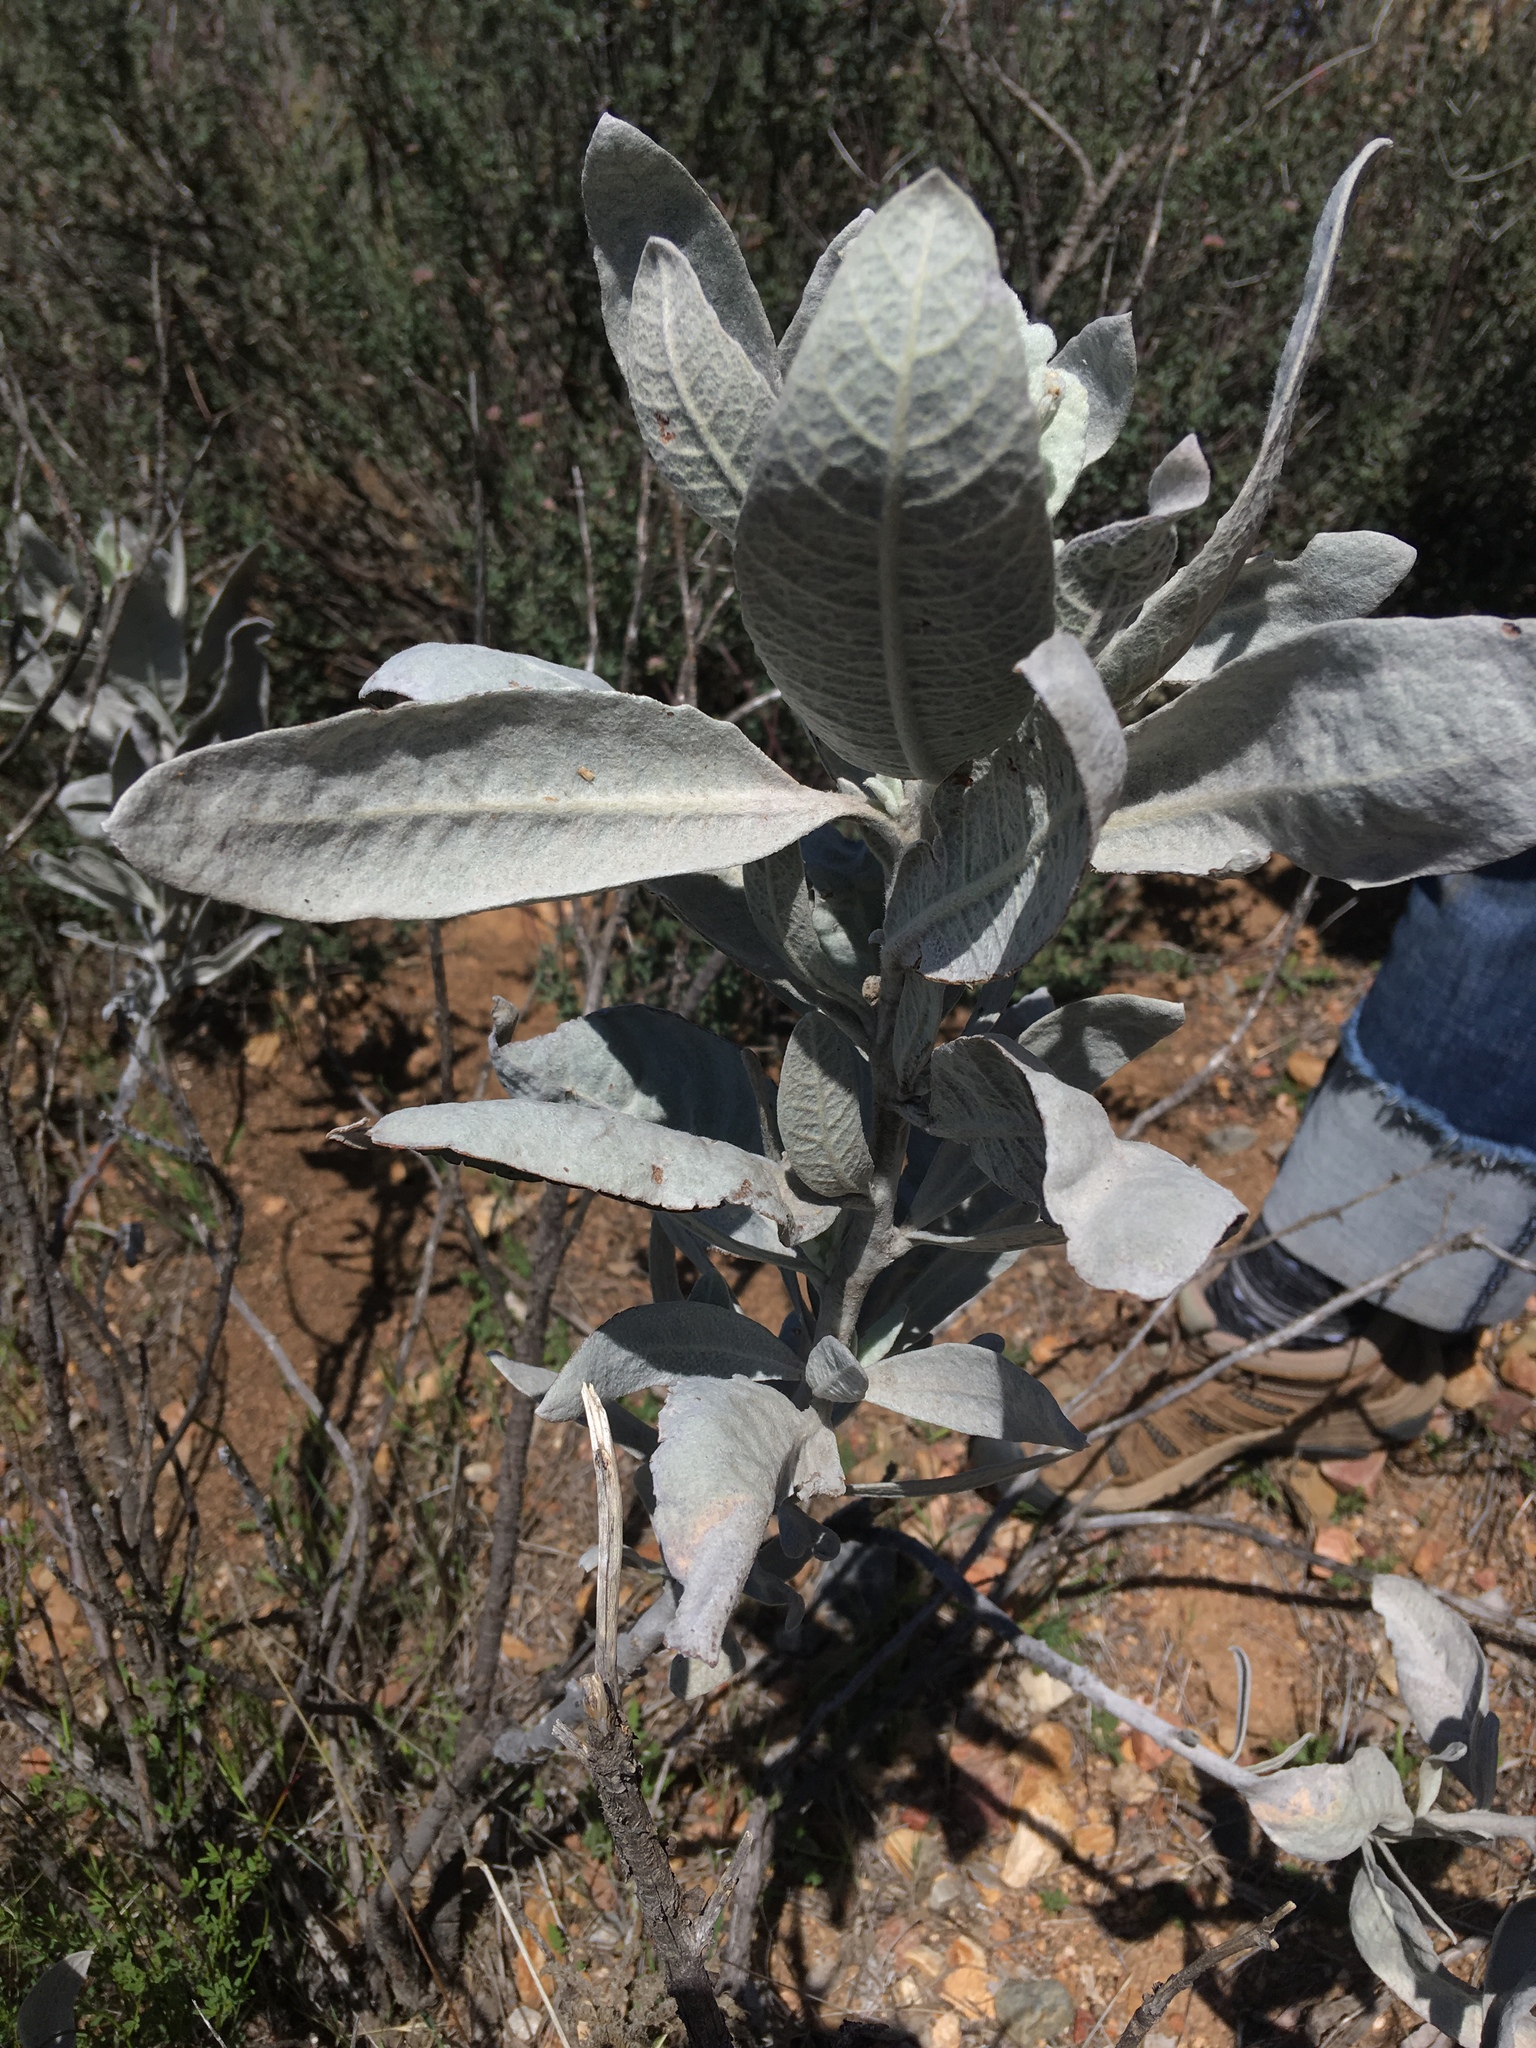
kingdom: Plantae
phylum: Tracheophyta
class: Magnoliopsida
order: Boraginales
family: Namaceae
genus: Eriodictyon
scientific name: Eriodictyon tomentosum
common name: Woolly yerba-santa
